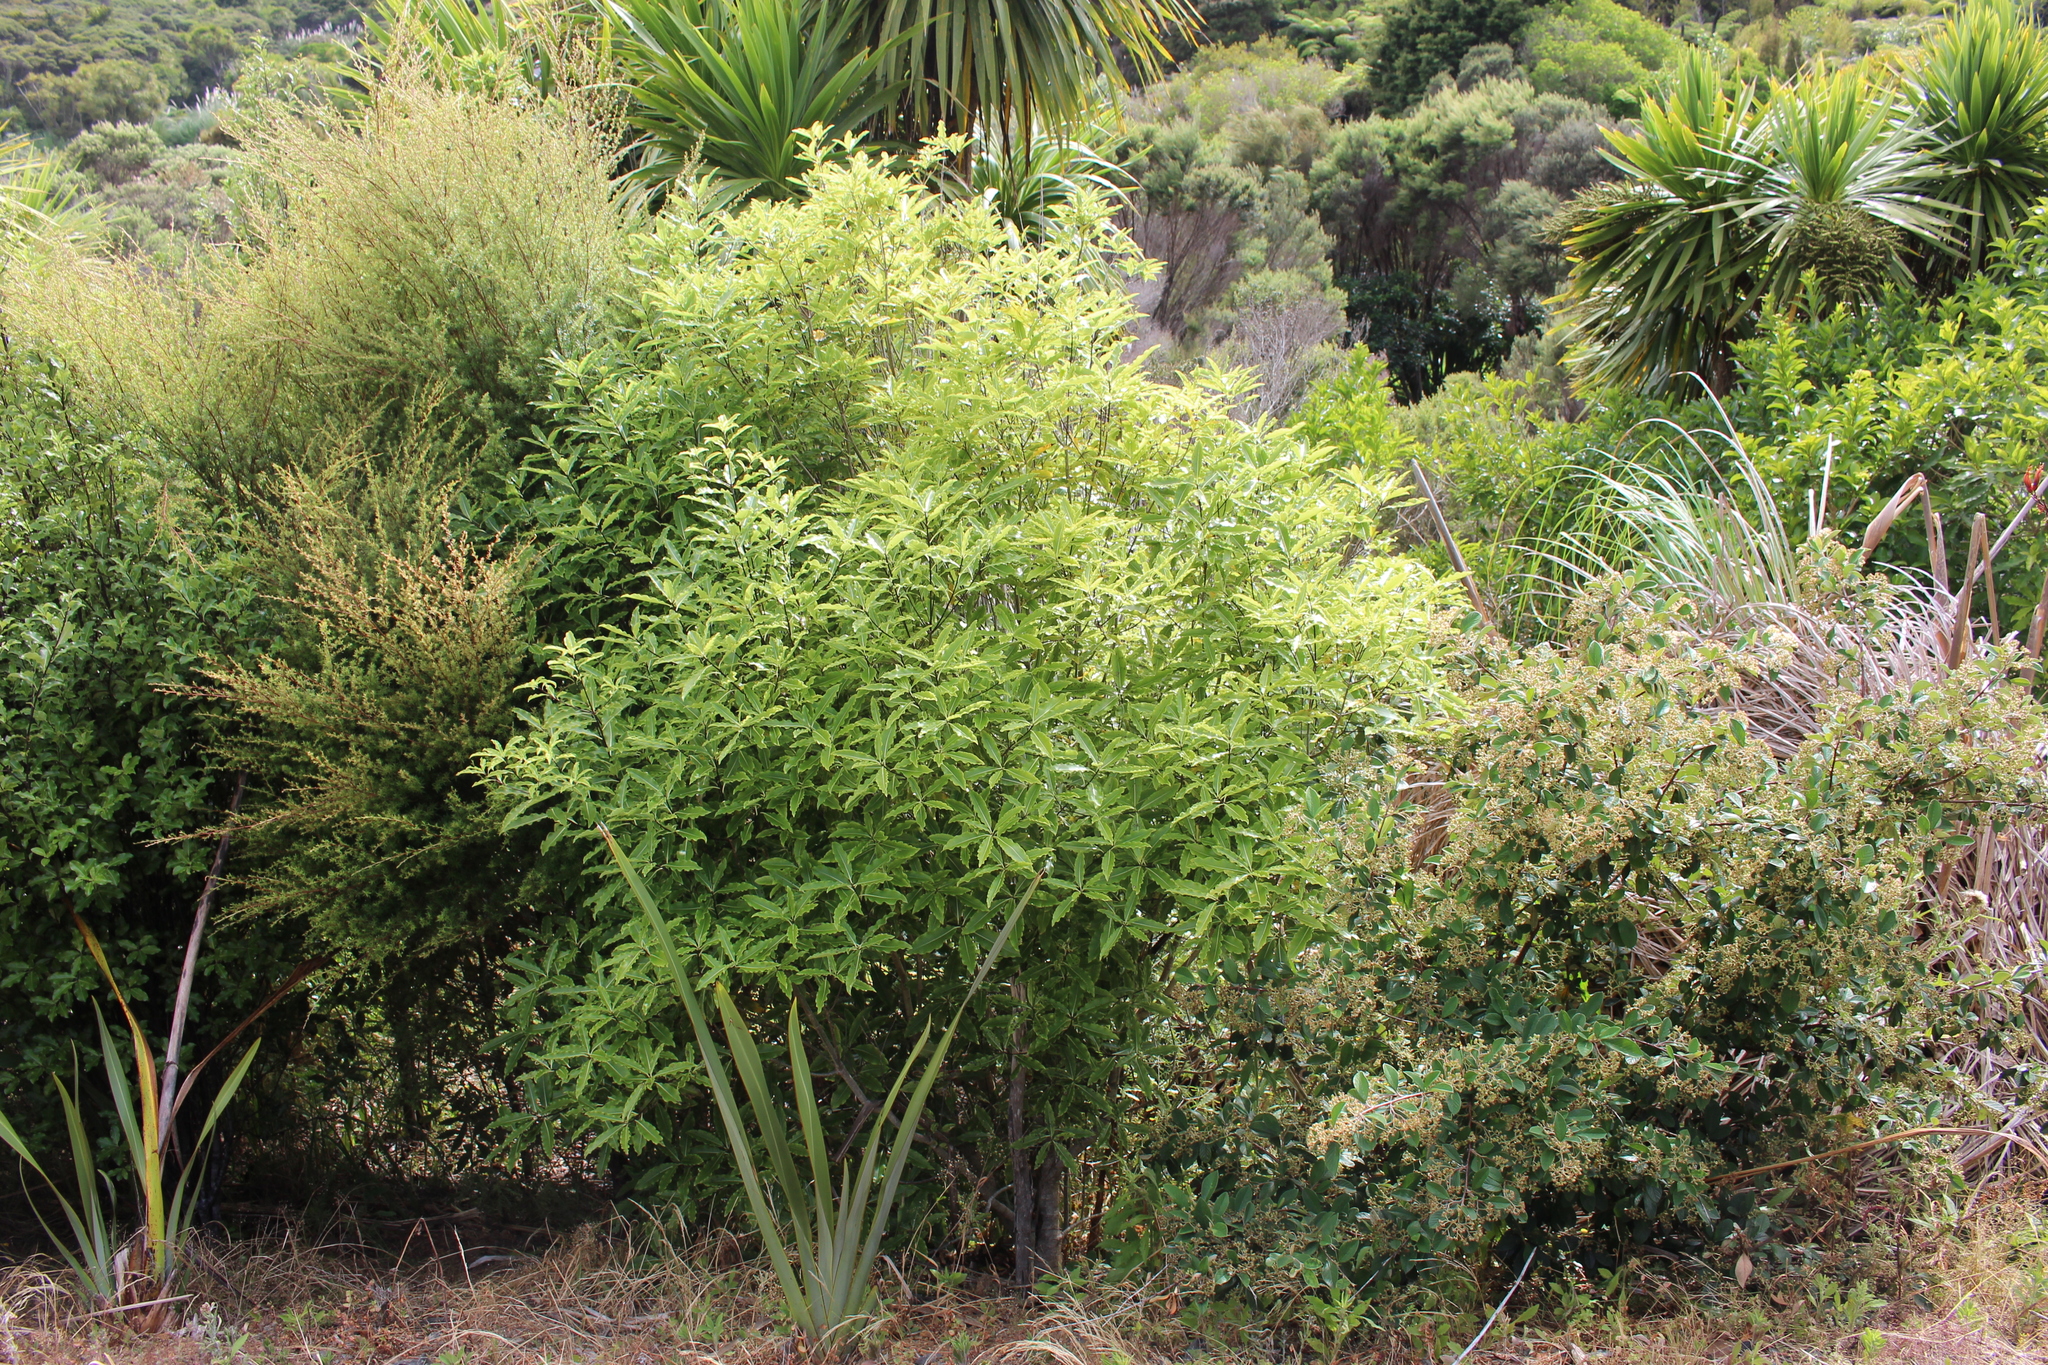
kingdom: Plantae
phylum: Tracheophyta
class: Magnoliopsida
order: Apiales
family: Pittosporaceae
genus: Pittosporum
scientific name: Pittosporum eugenioides
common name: Lemonwood
